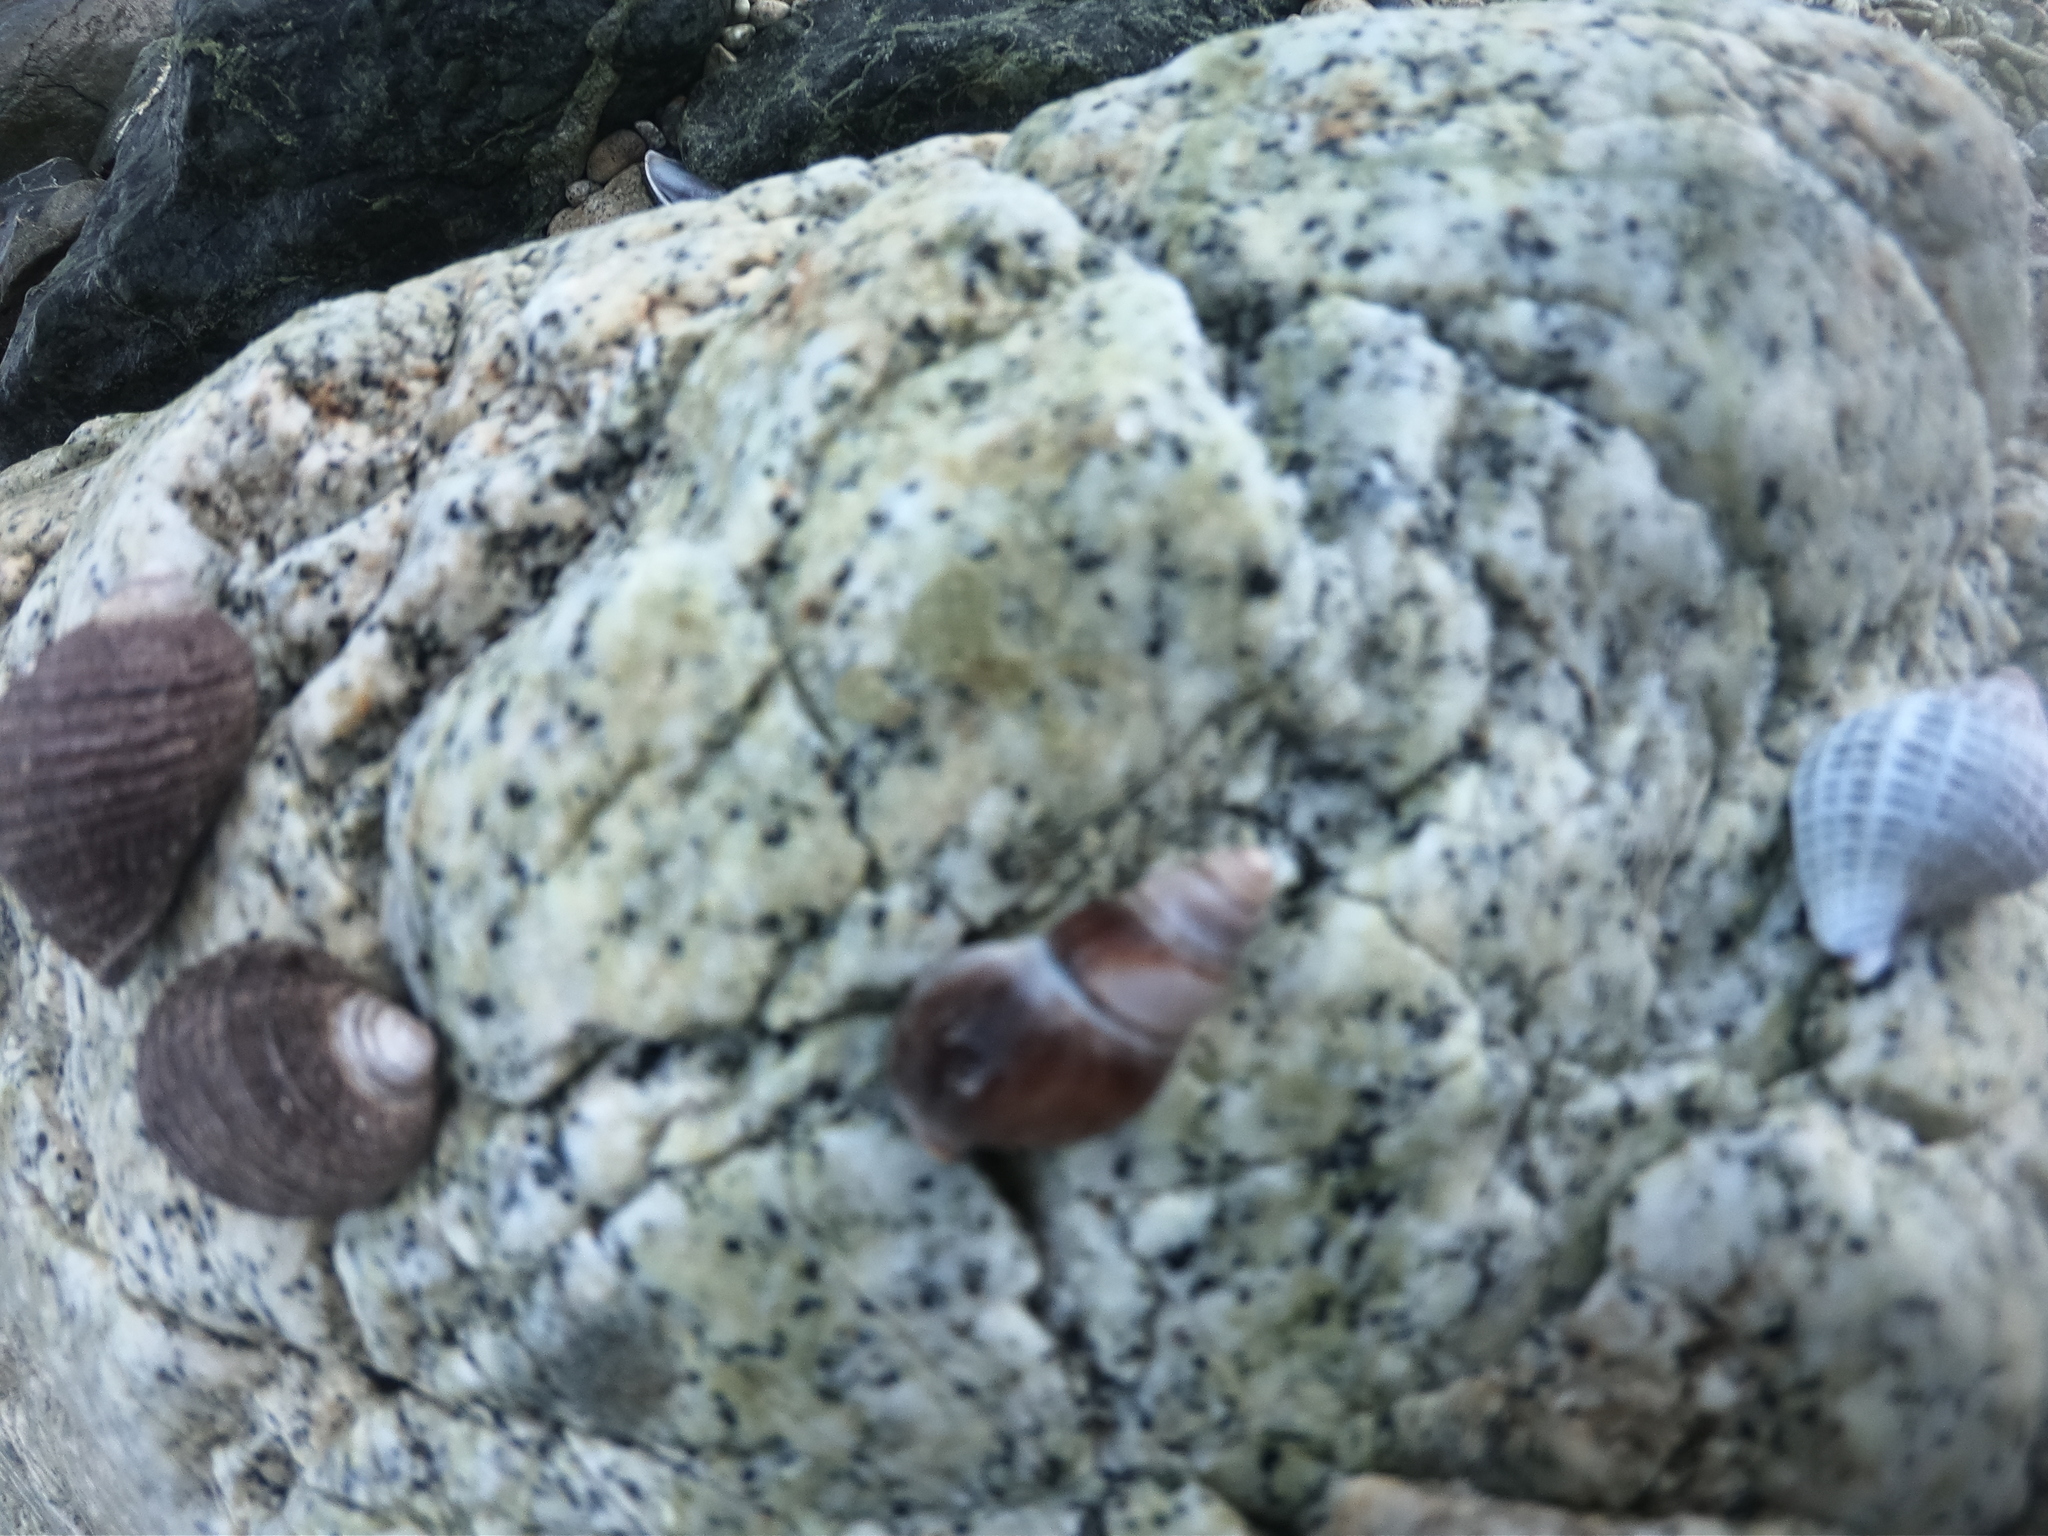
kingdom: Animalia
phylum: Mollusca
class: Gastropoda
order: Neogastropoda
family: Cominellidae
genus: Pareuthria
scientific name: Pareuthria fuscata
